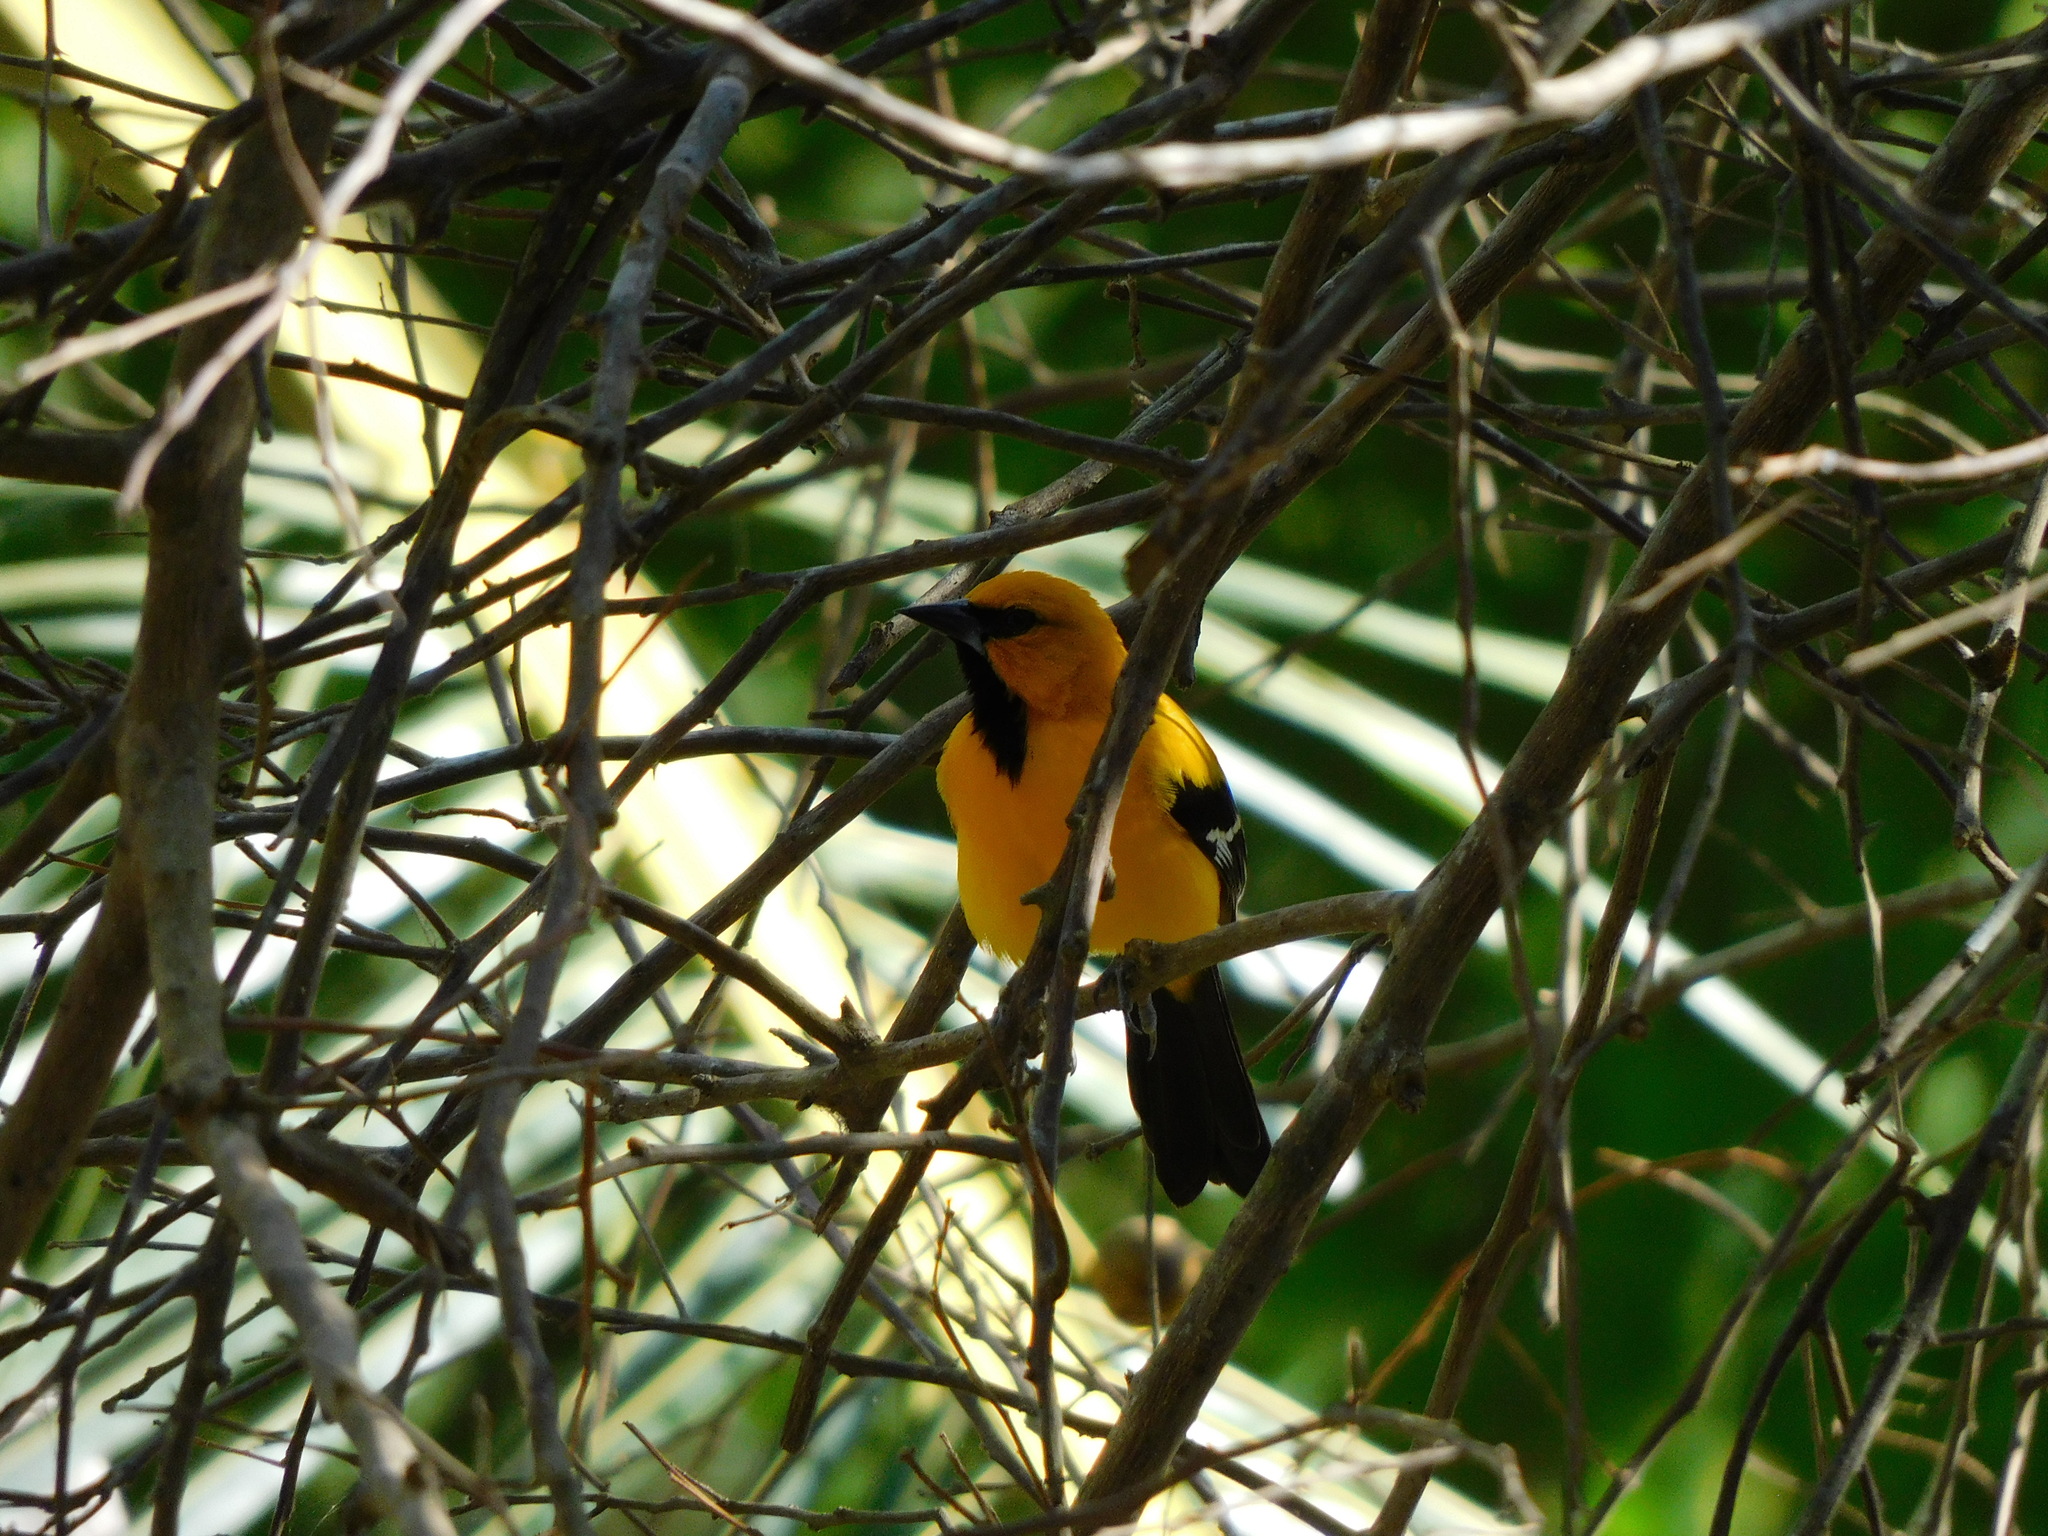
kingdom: Animalia
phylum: Chordata
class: Aves
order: Passeriformes
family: Icteridae
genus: Icterus
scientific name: Icterus nigrogularis
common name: Yellow oriole
